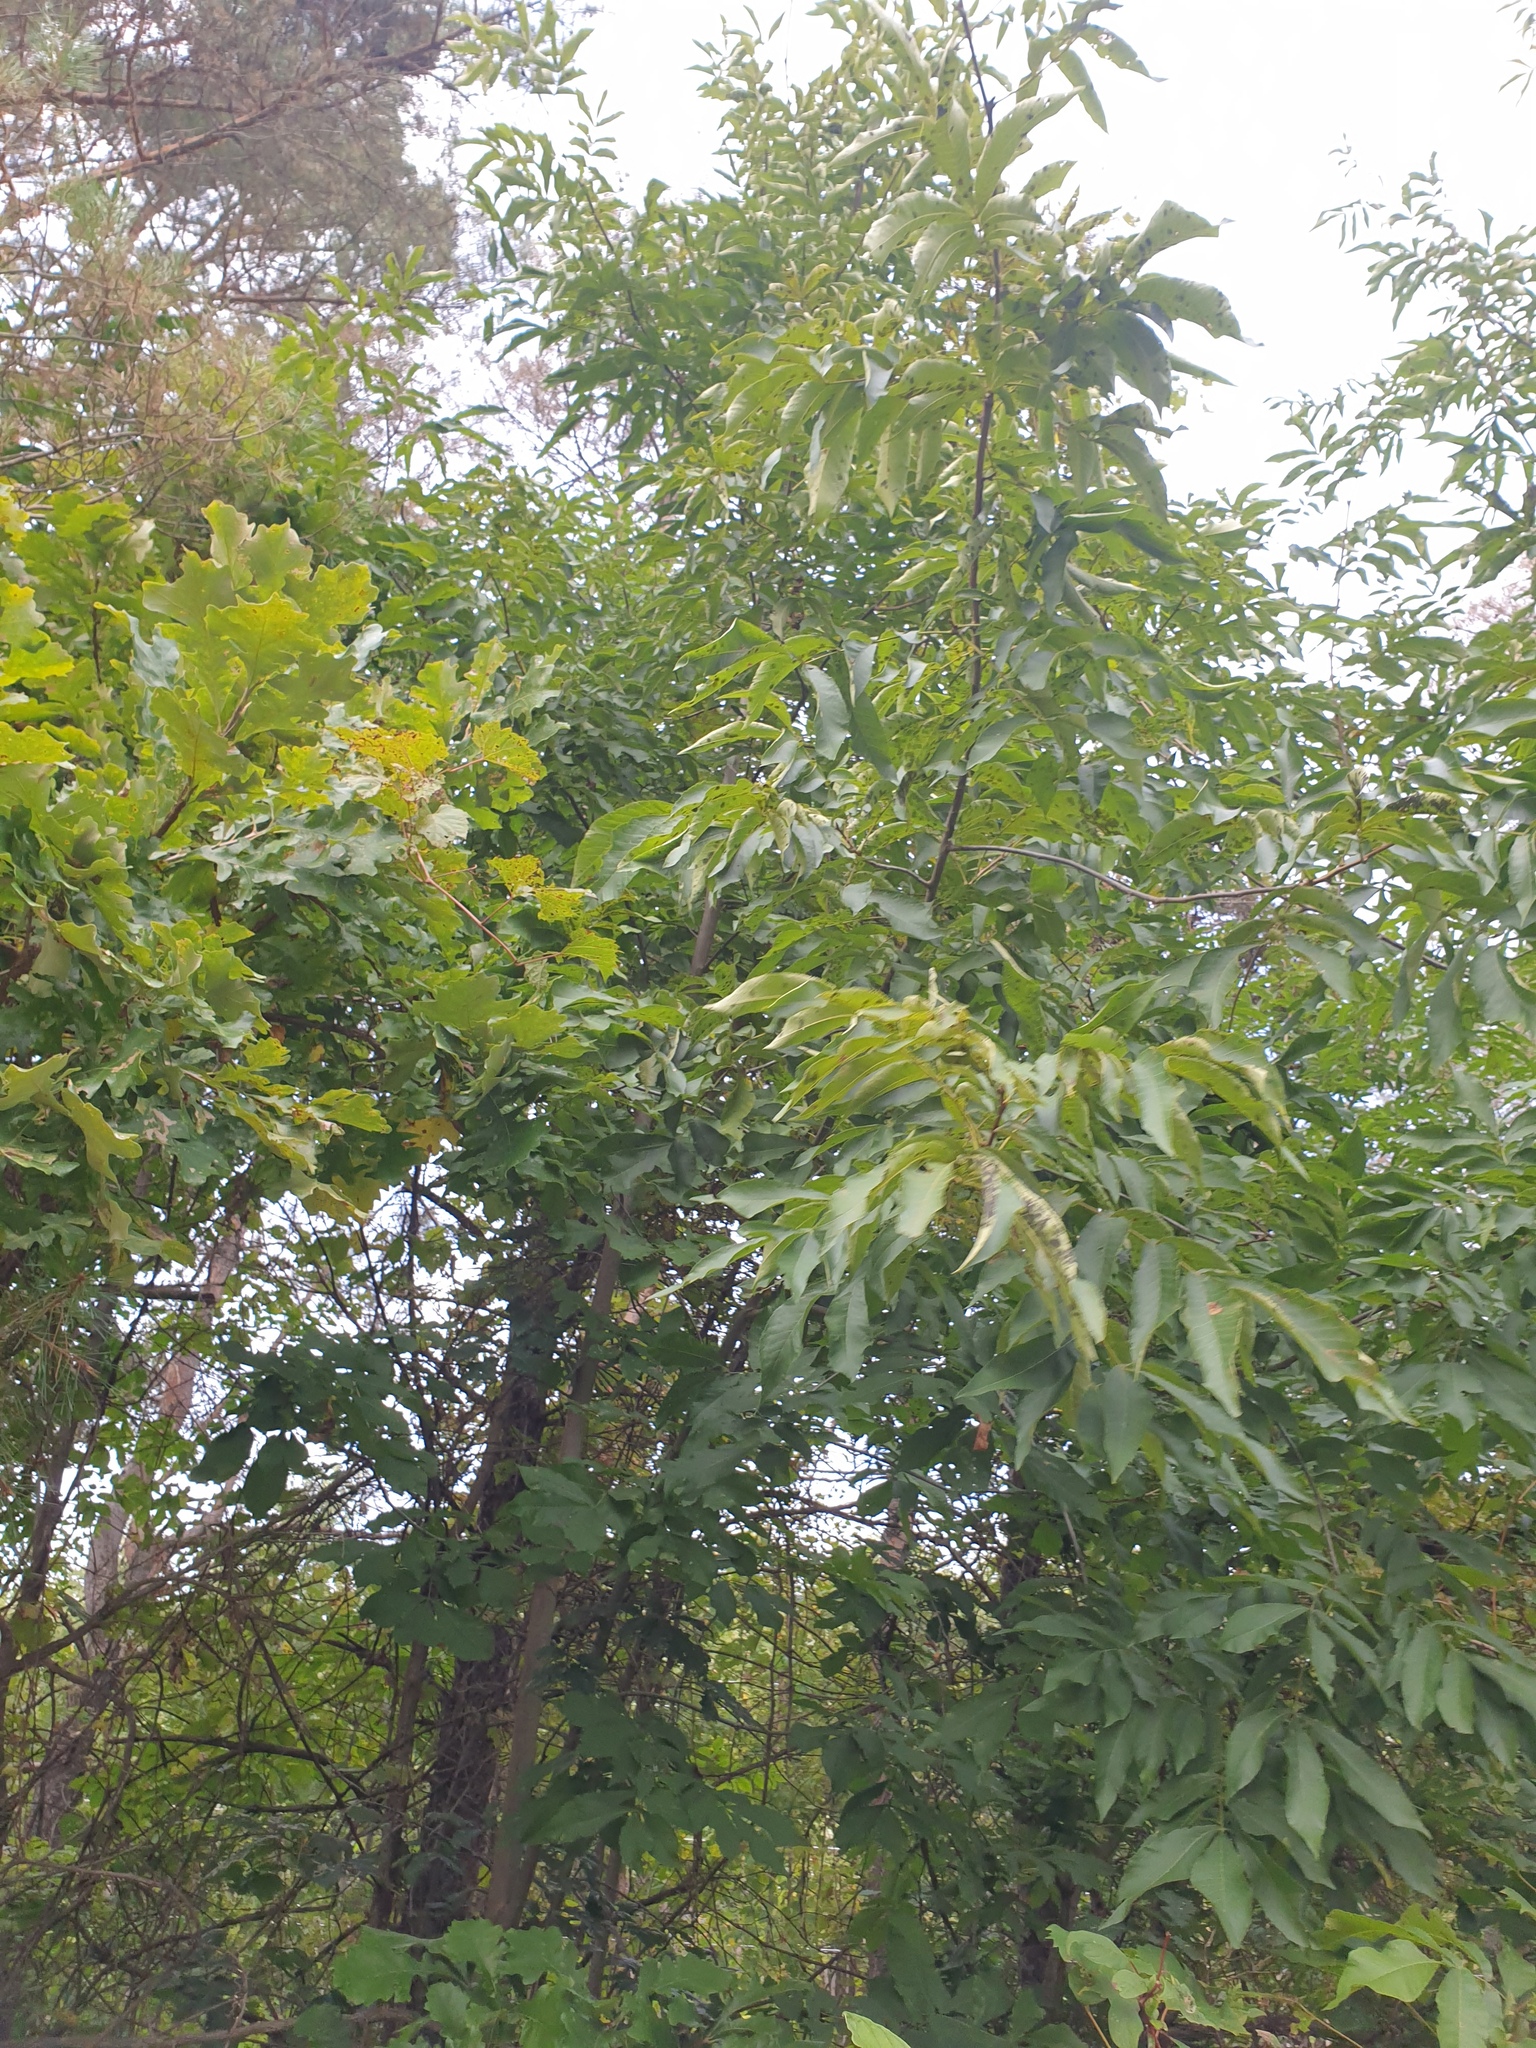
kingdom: Plantae
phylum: Tracheophyta
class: Magnoliopsida
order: Fagales
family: Juglandaceae
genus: Carya
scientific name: Carya cordiformis
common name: Bitternut hickory
